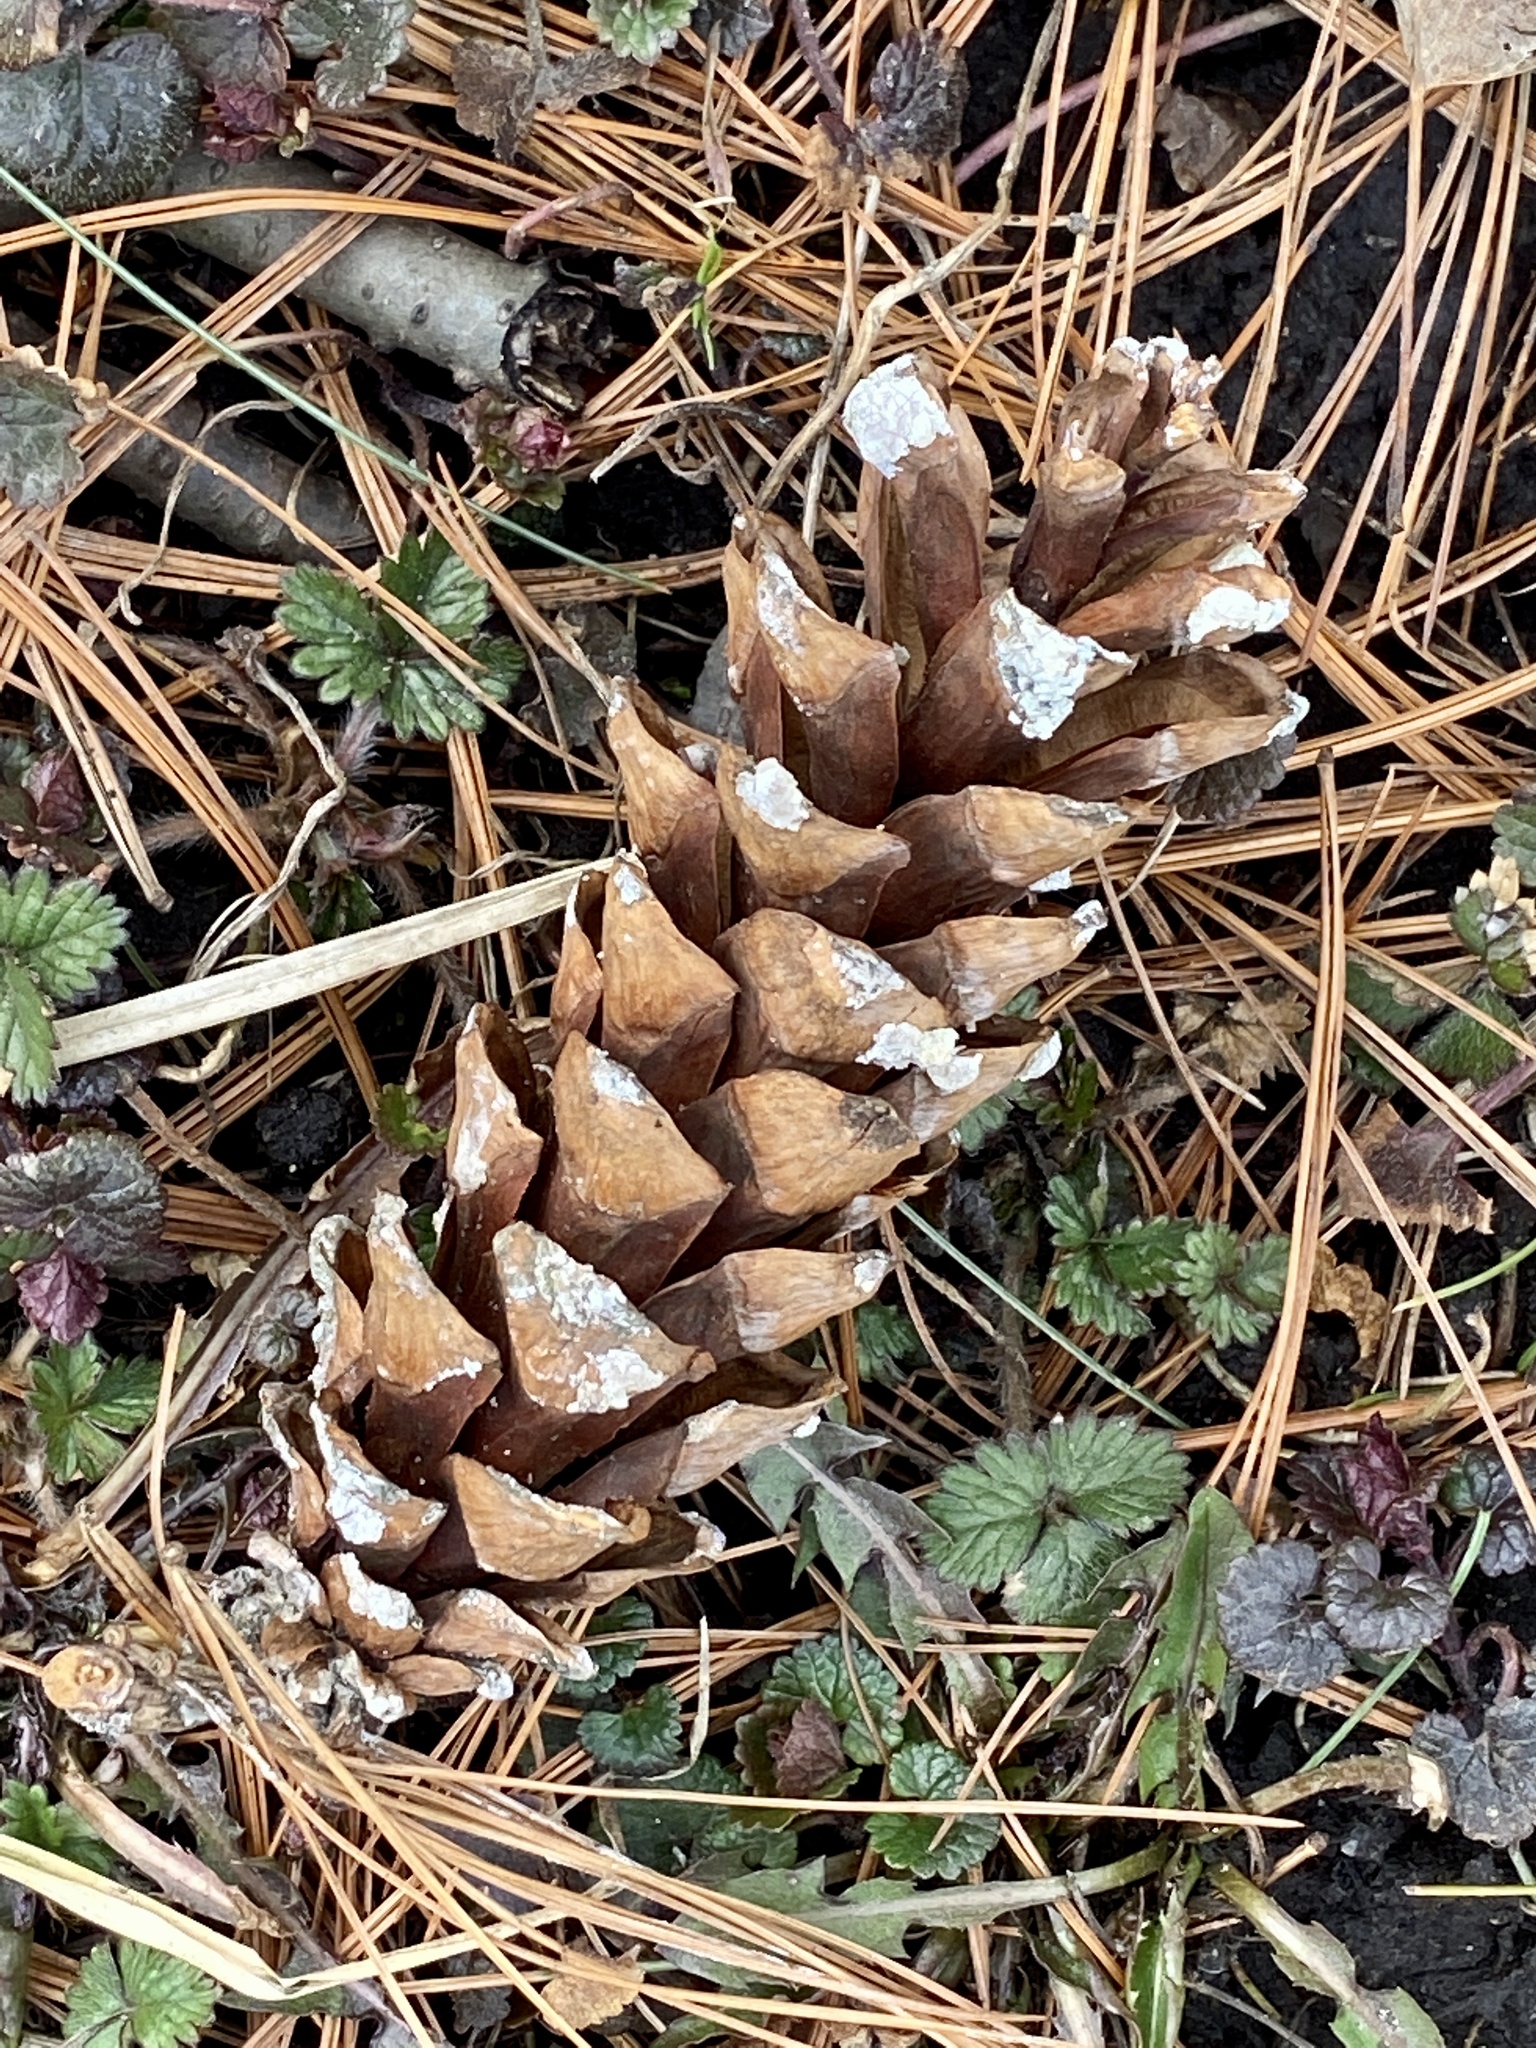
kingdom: Plantae
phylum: Tracheophyta
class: Pinopsida
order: Pinales
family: Pinaceae
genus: Pinus
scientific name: Pinus strobus
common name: Weymouth pine
